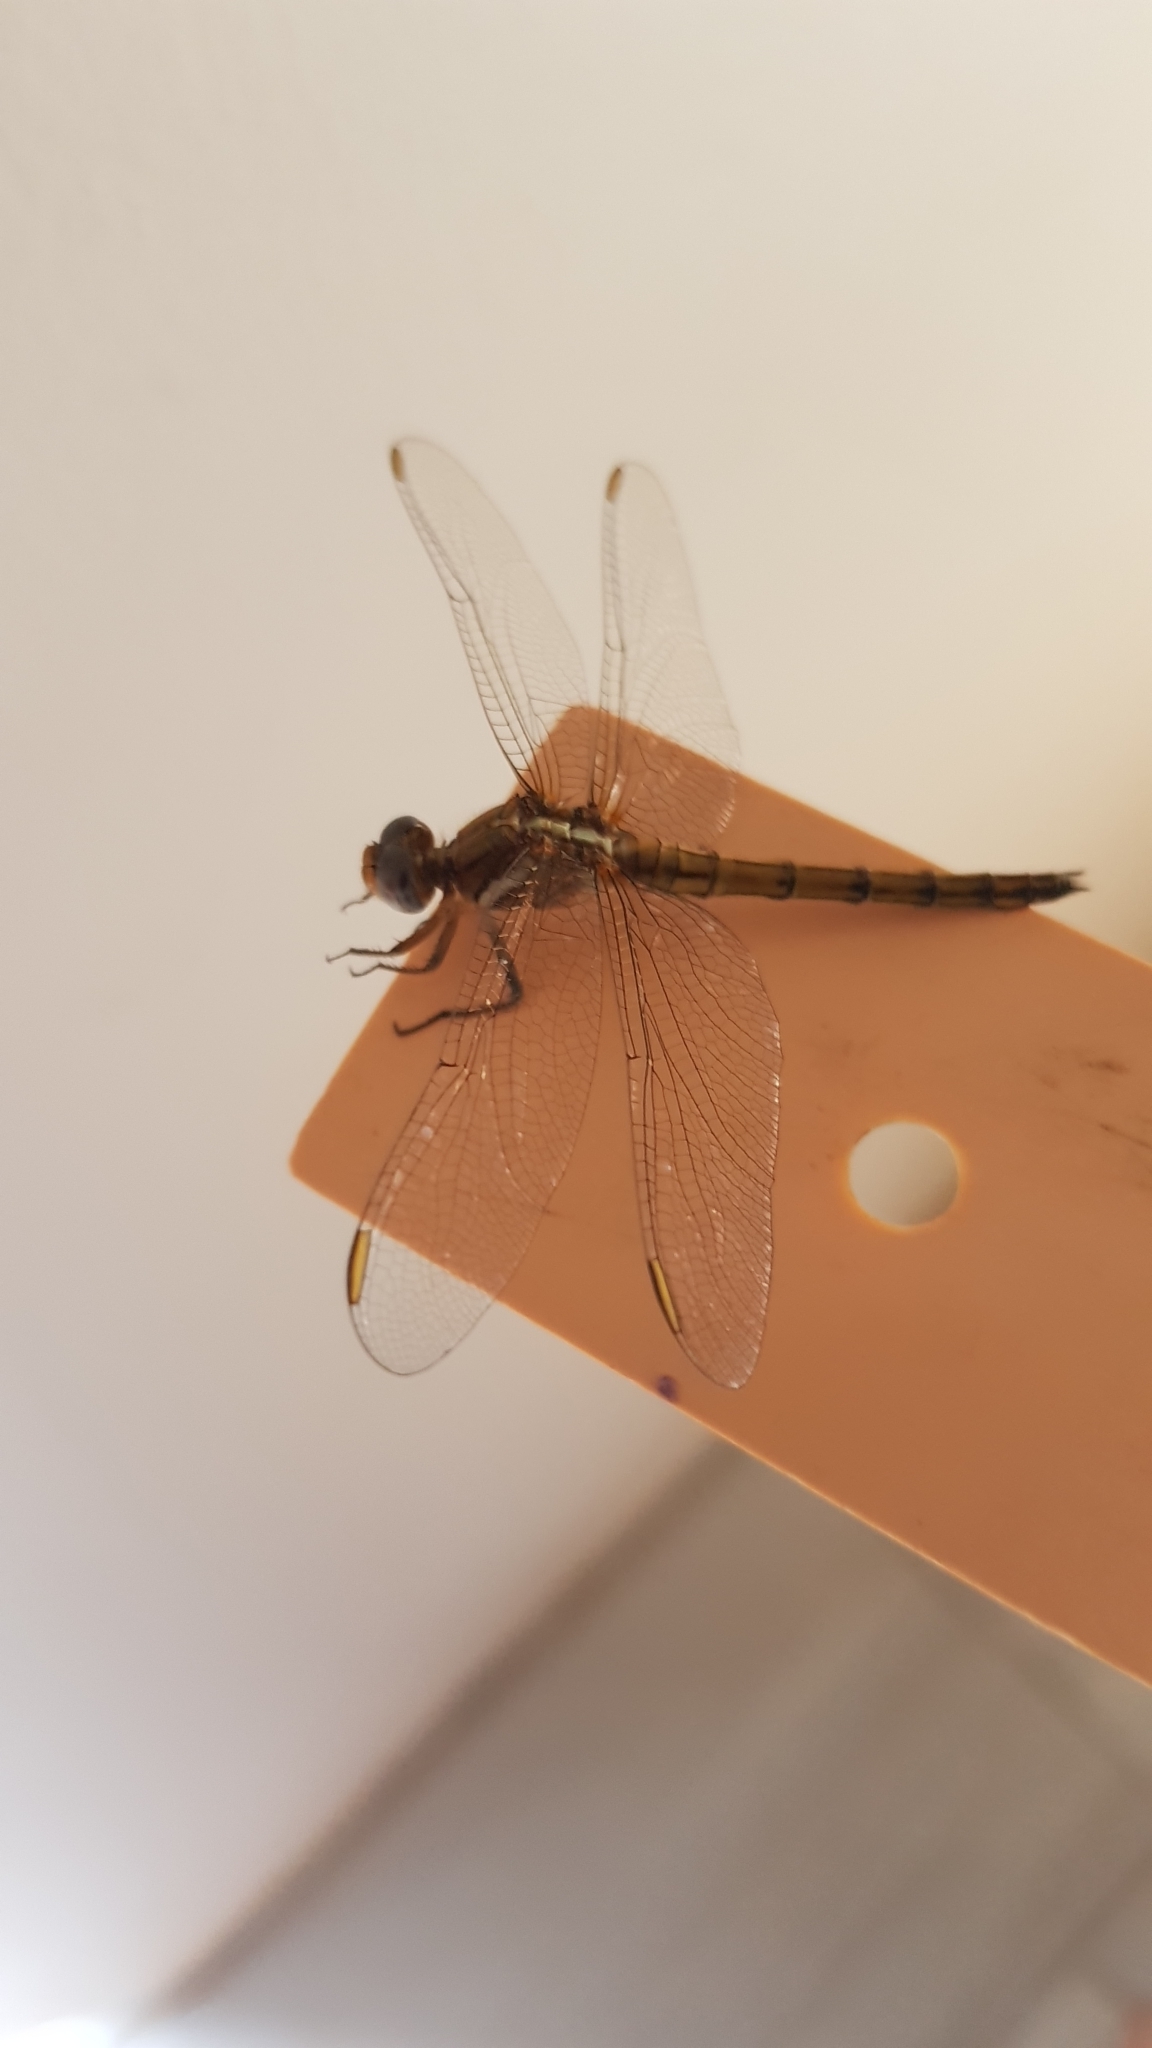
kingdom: Animalia
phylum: Arthropoda
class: Insecta
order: Odonata
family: Libellulidae
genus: Orthetrum
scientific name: Orthetrum chrysostigma
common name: Epaulet skimmer
